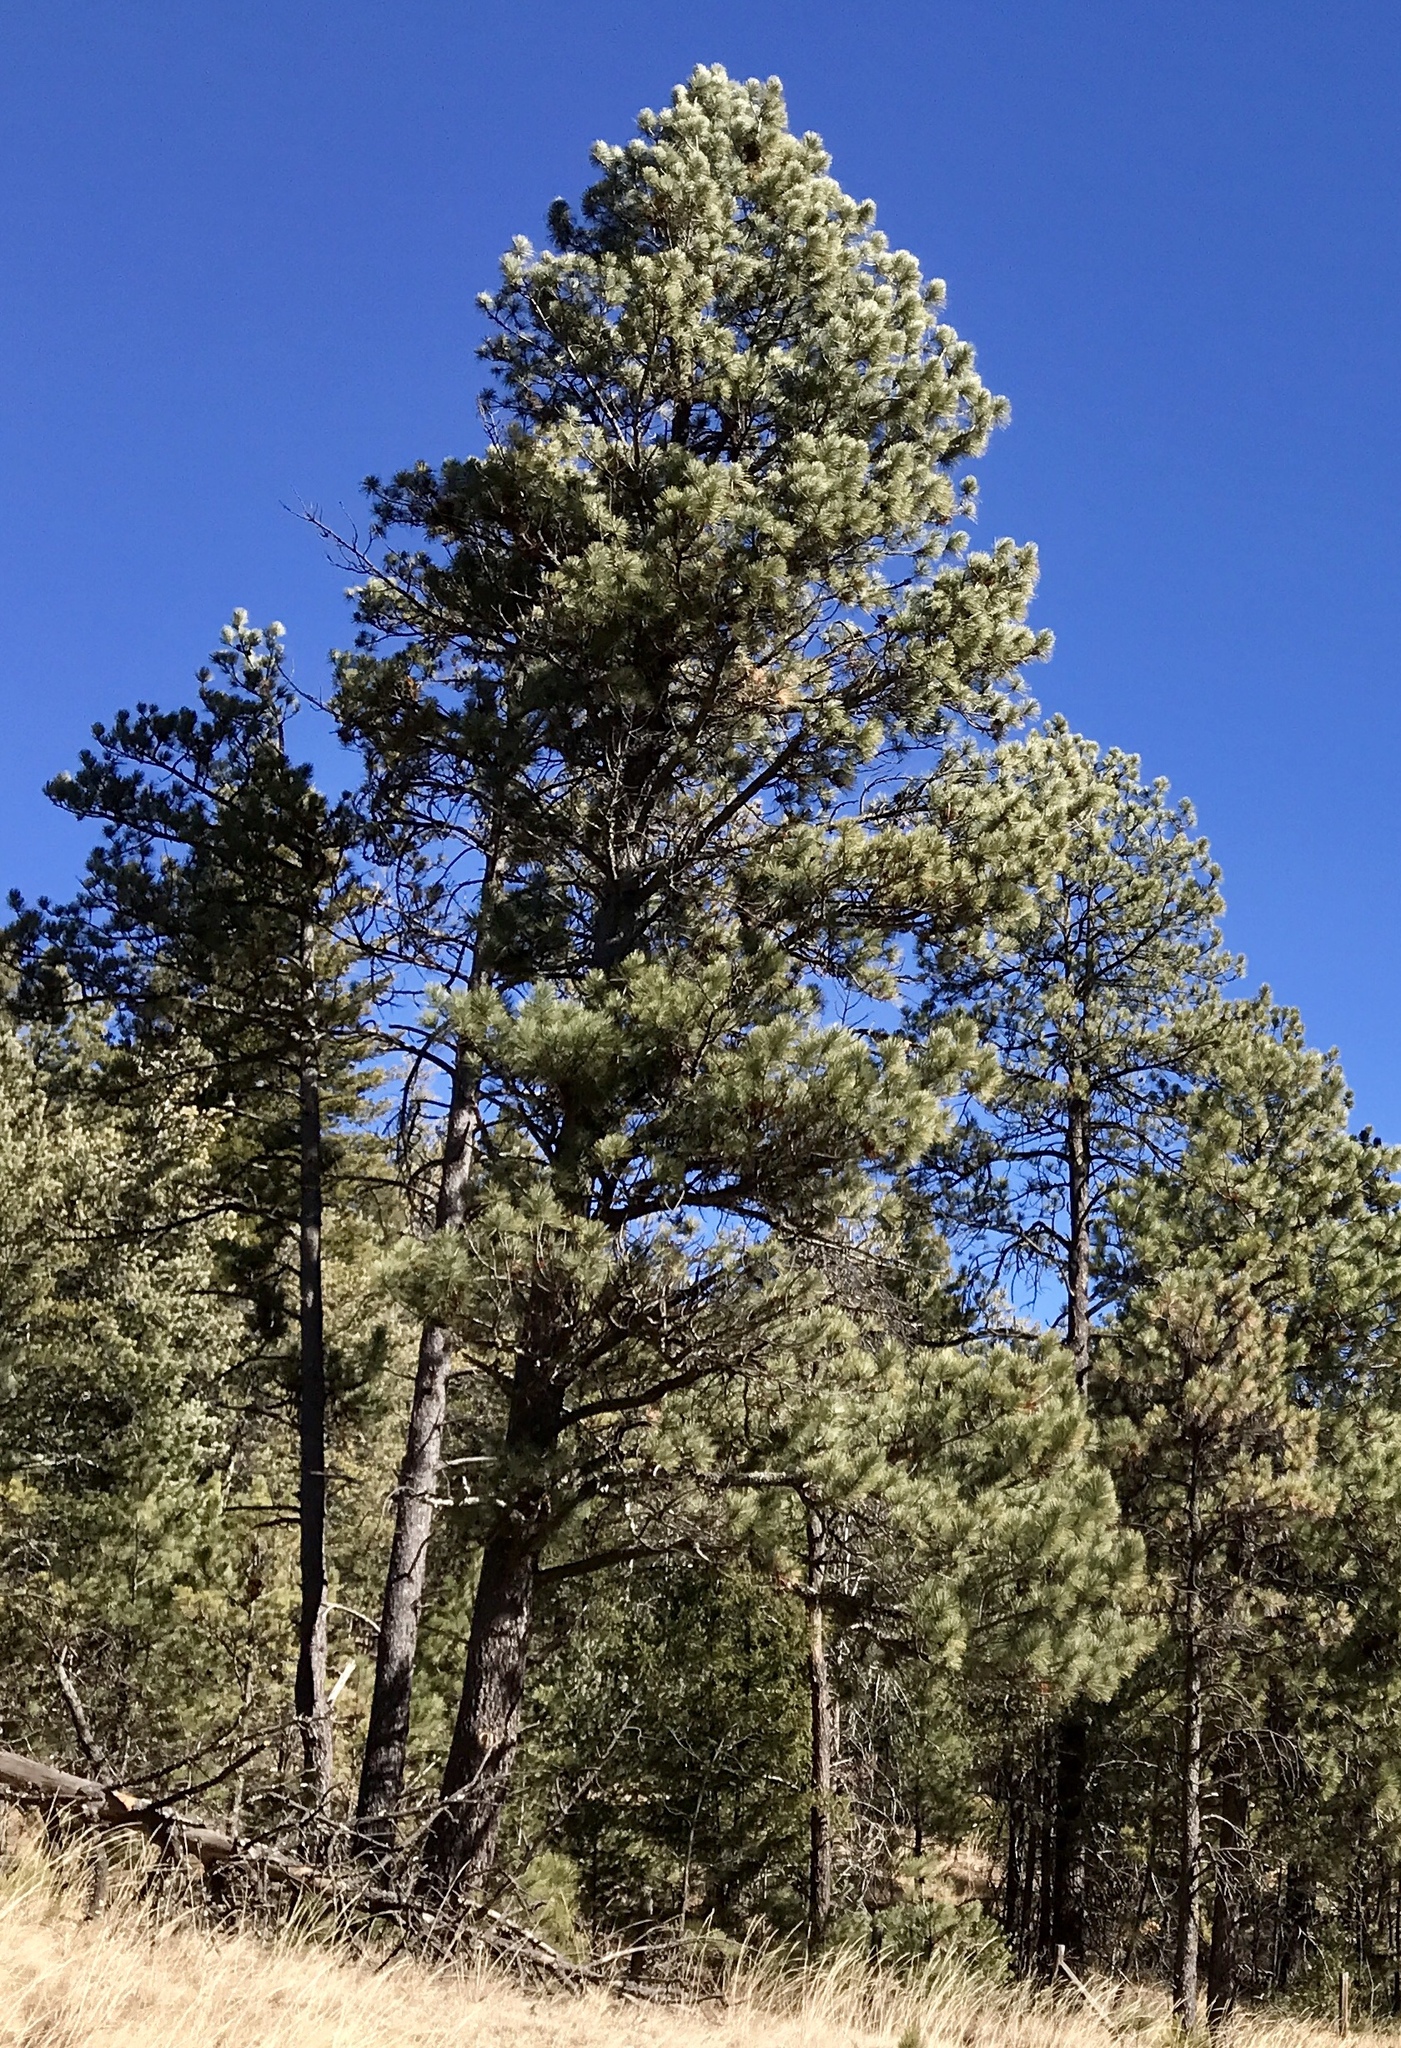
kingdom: Plantae
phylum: Tracheophyta
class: Pinopsida
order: Pinales
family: Pinaceae
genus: Pinus
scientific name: Pinus ponderosa
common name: Western yellow-pine
